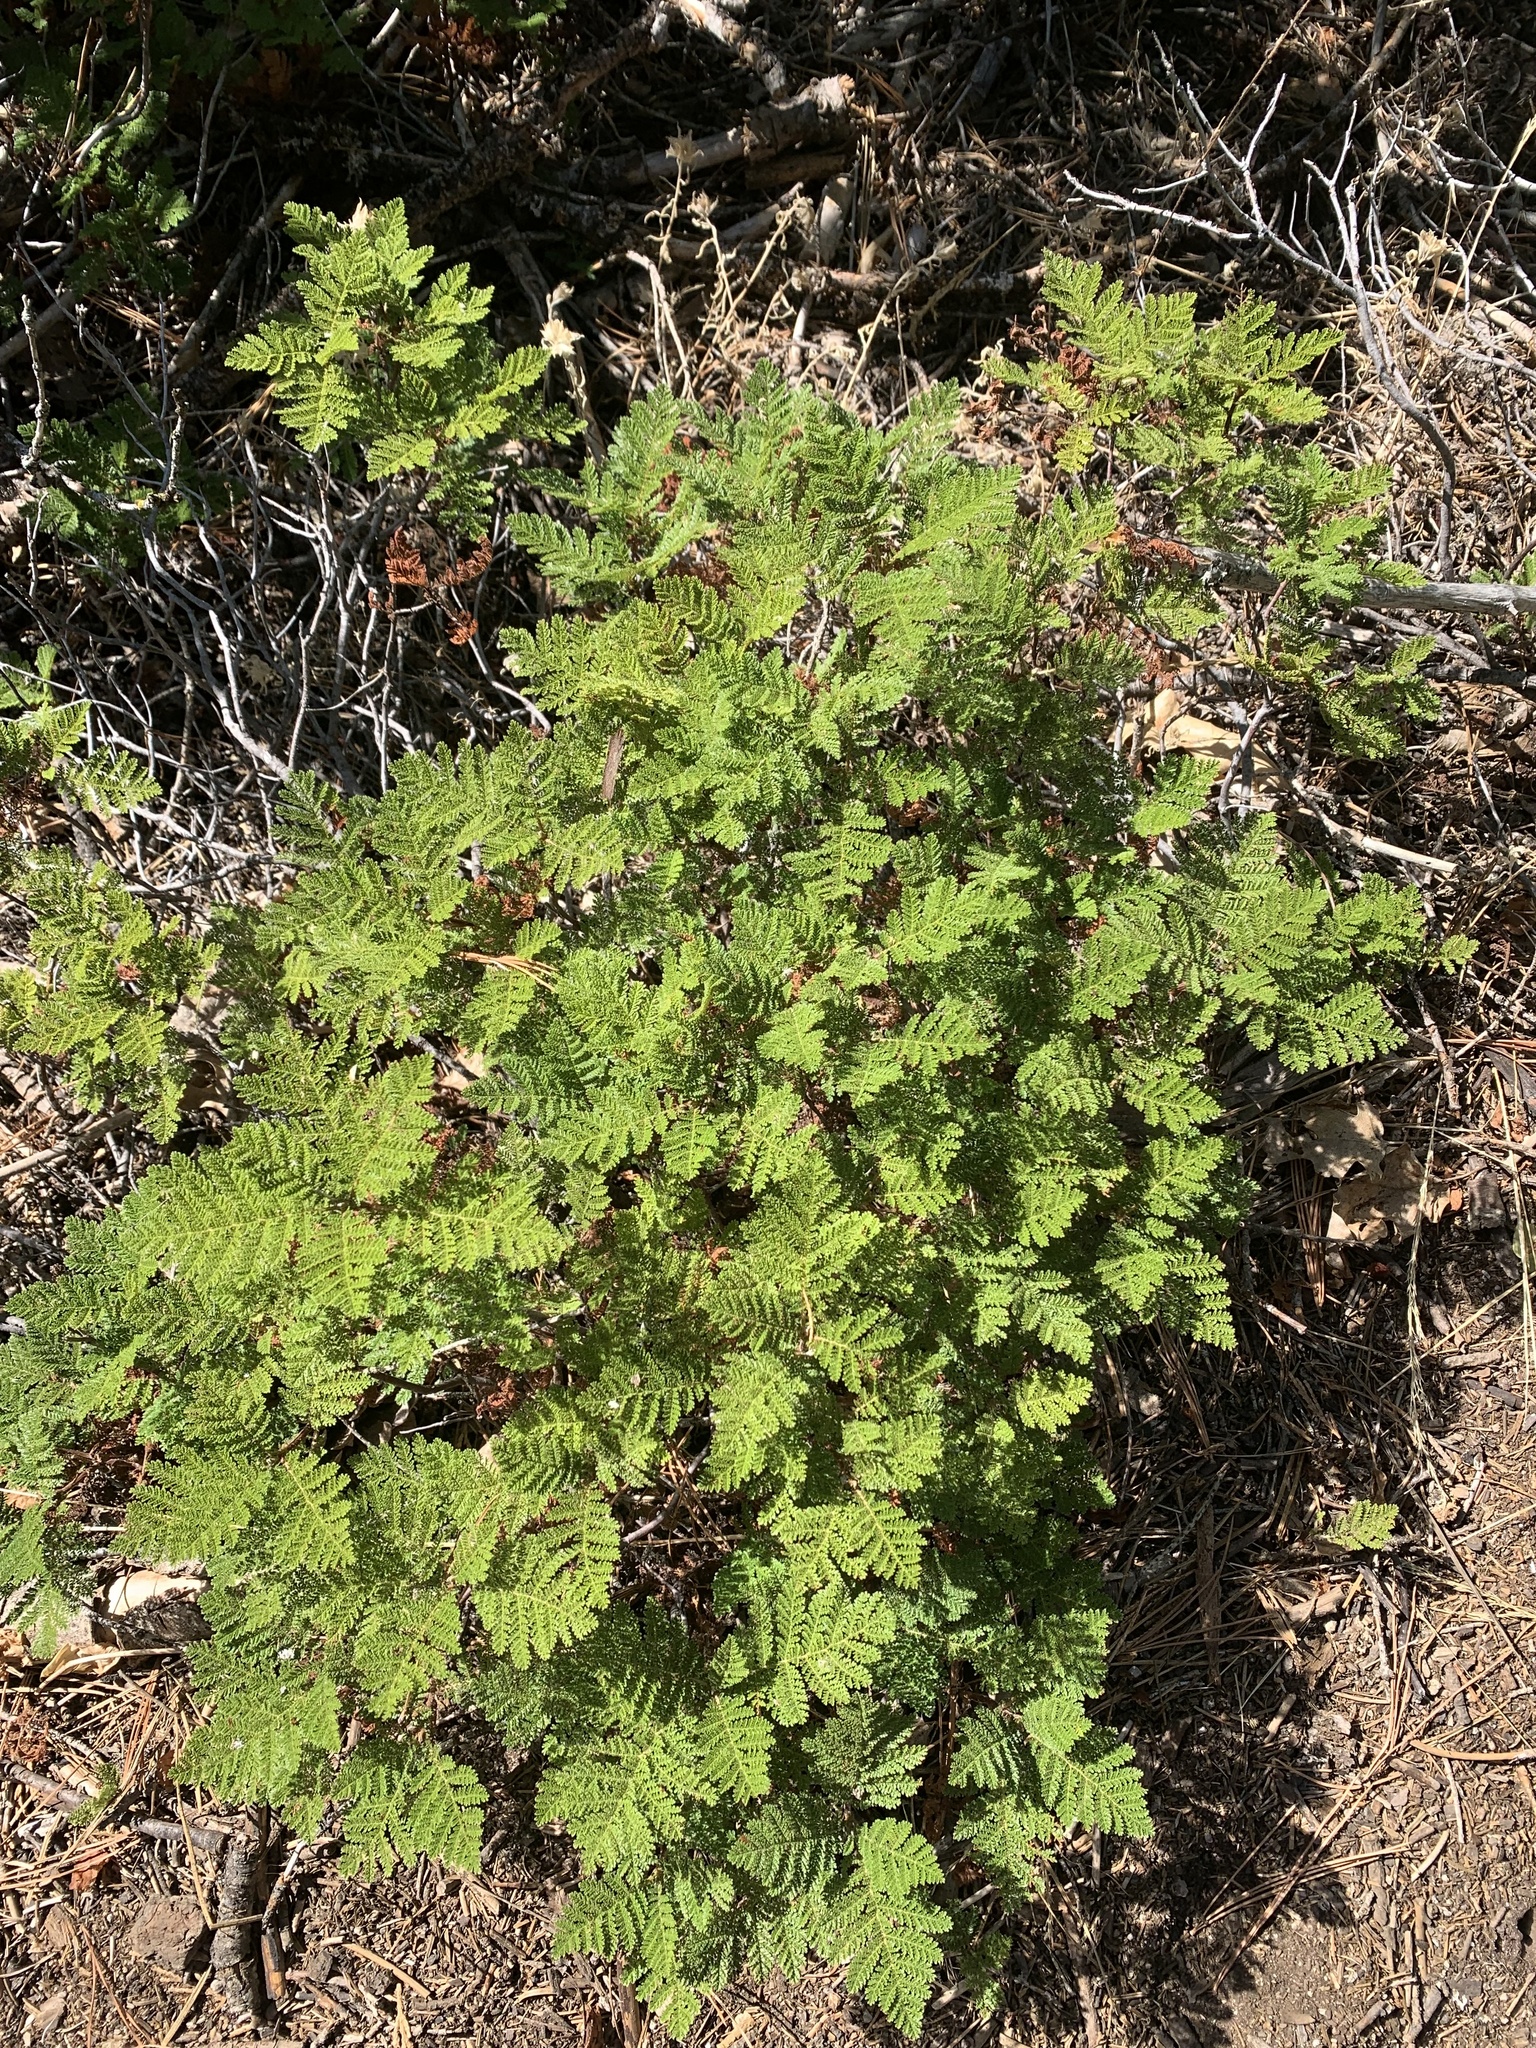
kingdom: Plantae
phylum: Tracheophyta
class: Magnoliopsida
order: Rosales
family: Rosaceae
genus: Chamaebatia
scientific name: Chamaebatia foliolosa
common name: Mountain misery
